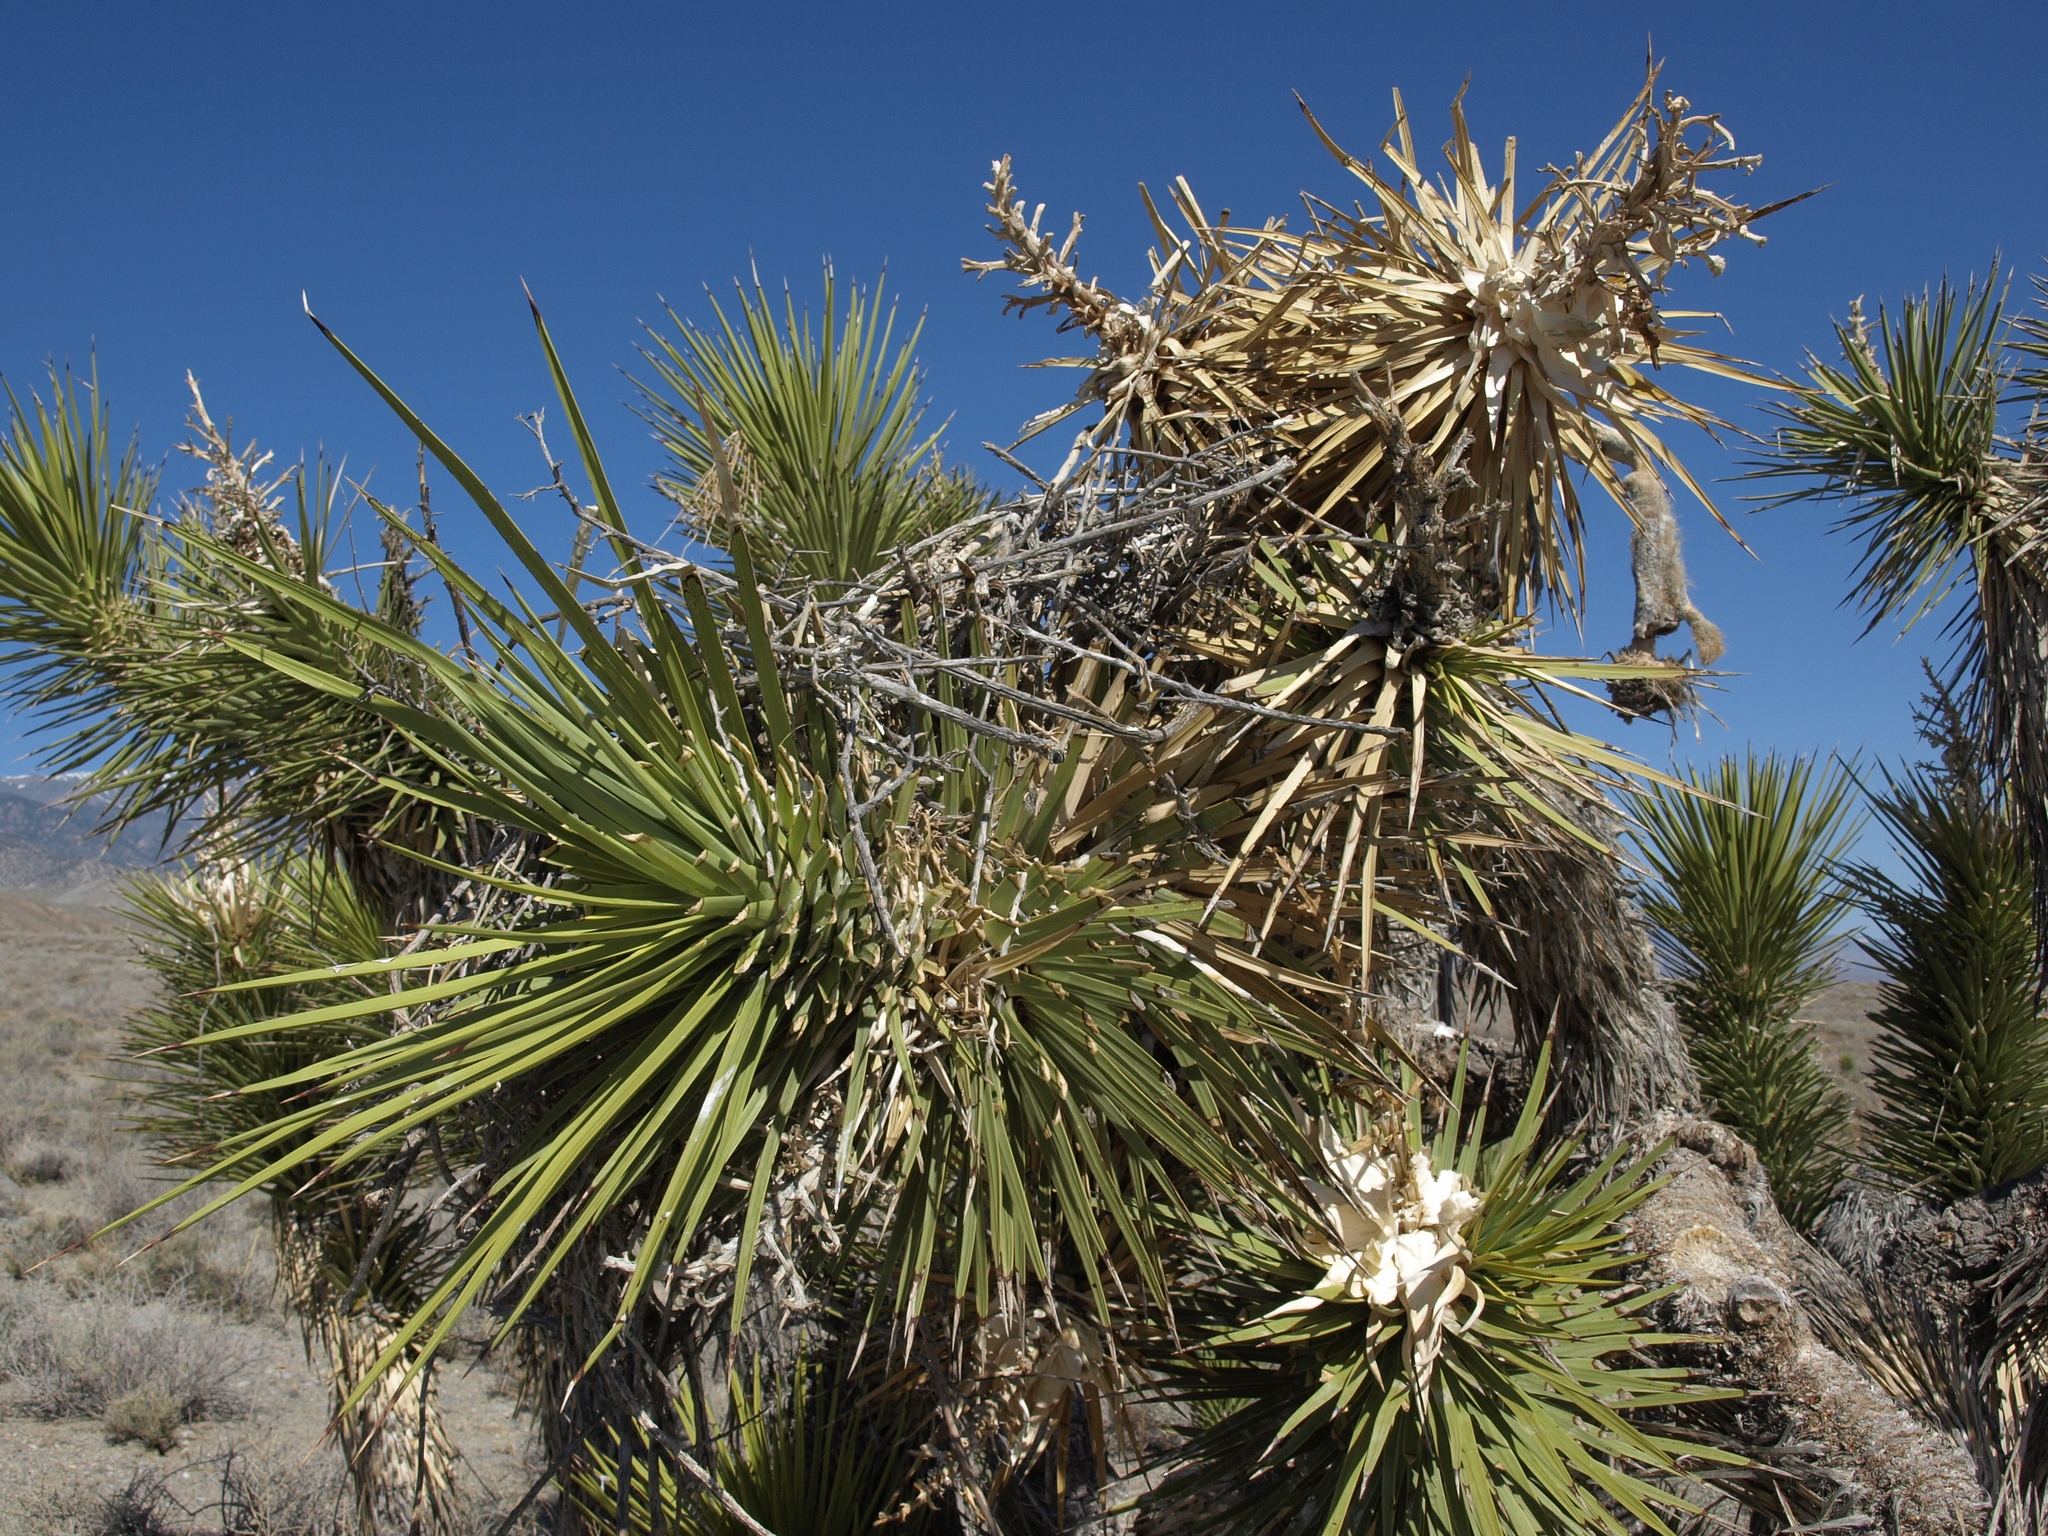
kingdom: Plantae
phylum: Tracheophyta
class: Liliopsida
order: Asparagales
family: Asparagaceae
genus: Yucca
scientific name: Yucca brevifolia
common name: Joshua tree
